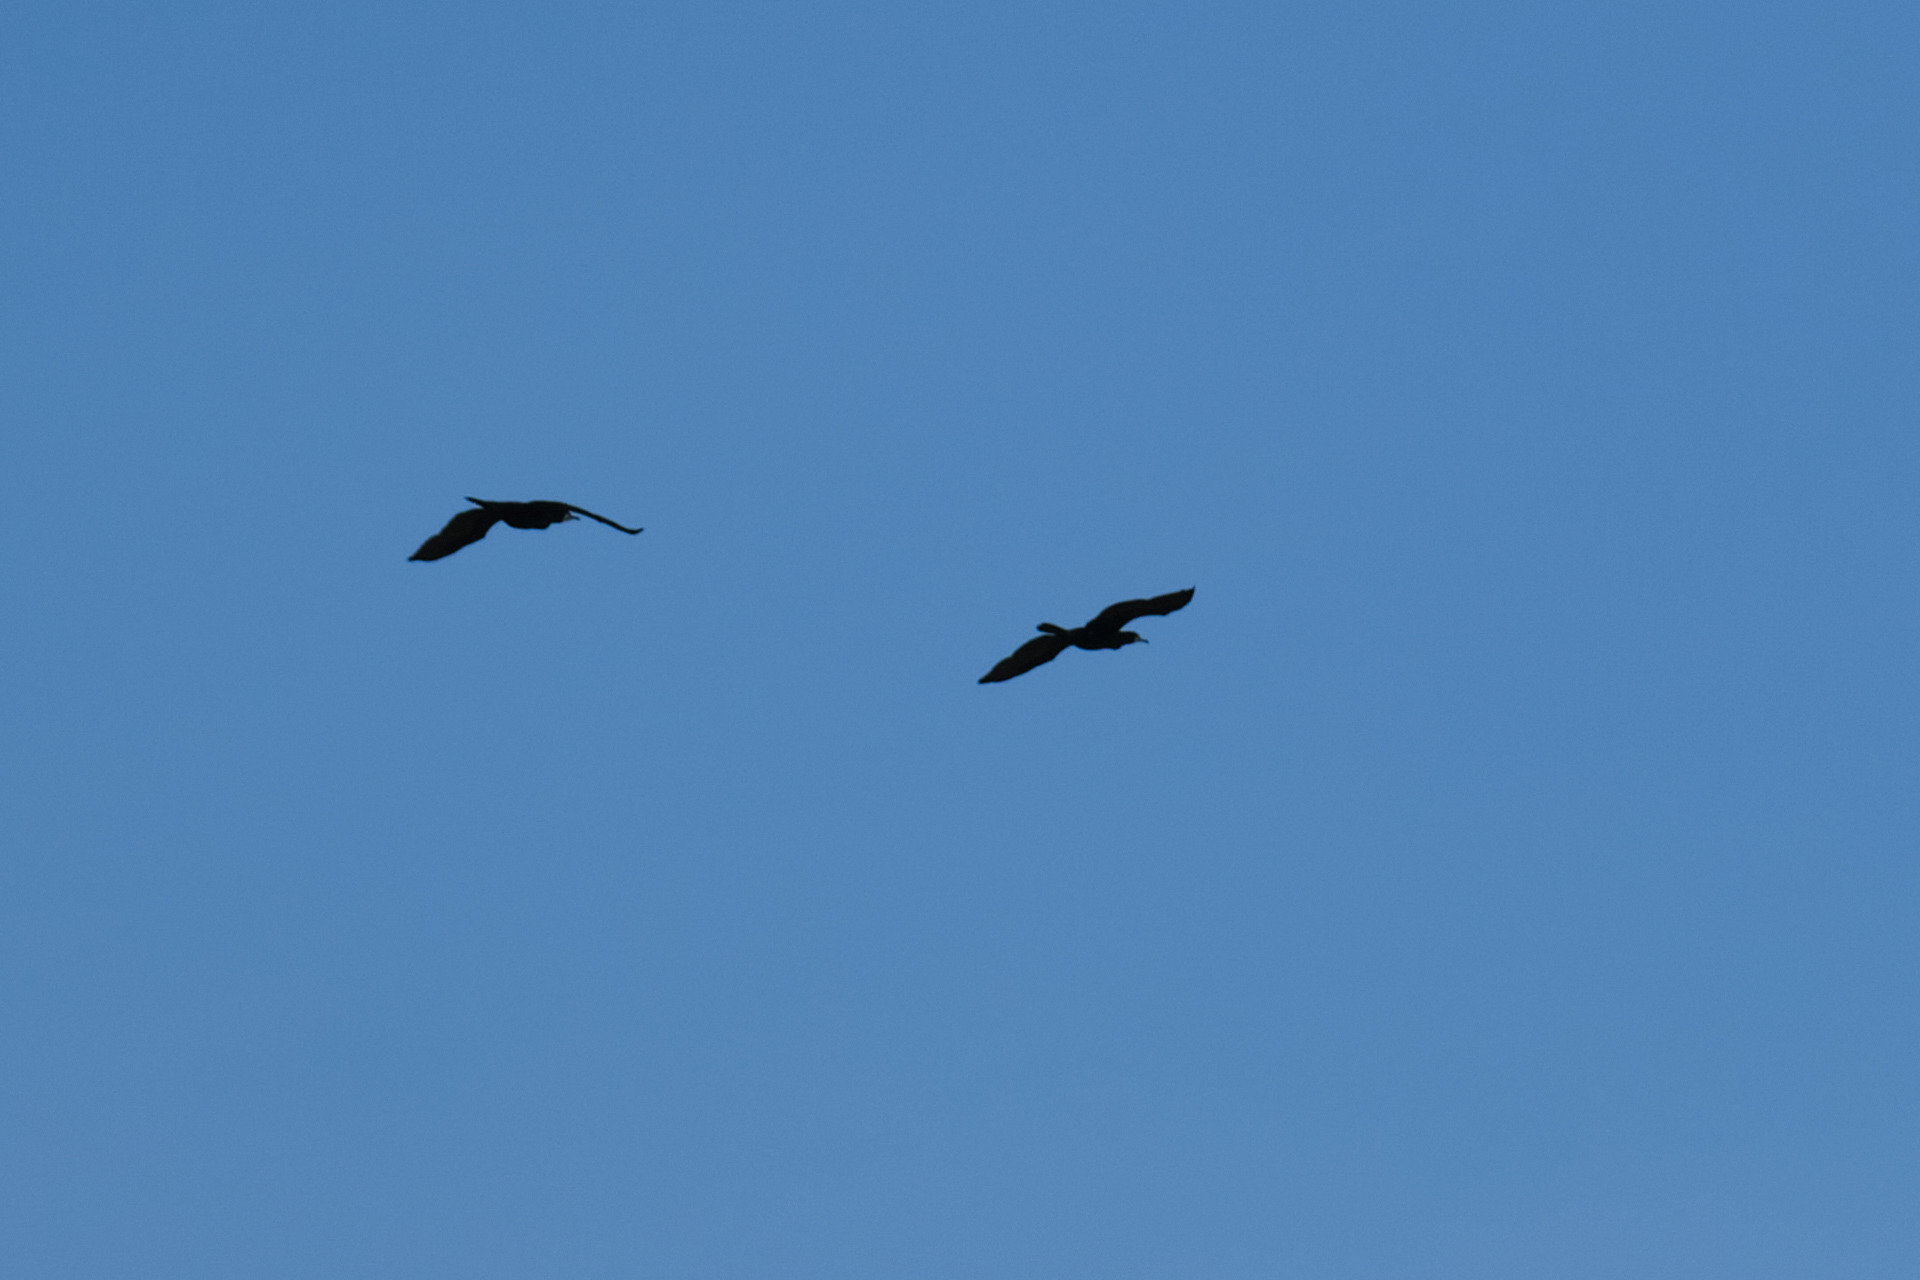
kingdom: Animalia
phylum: Chordata
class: Aves
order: Suliformes
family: Phalacrocoracidae
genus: Phalacrocorax
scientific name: Phalacrocorax carbo
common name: Great cormorant
